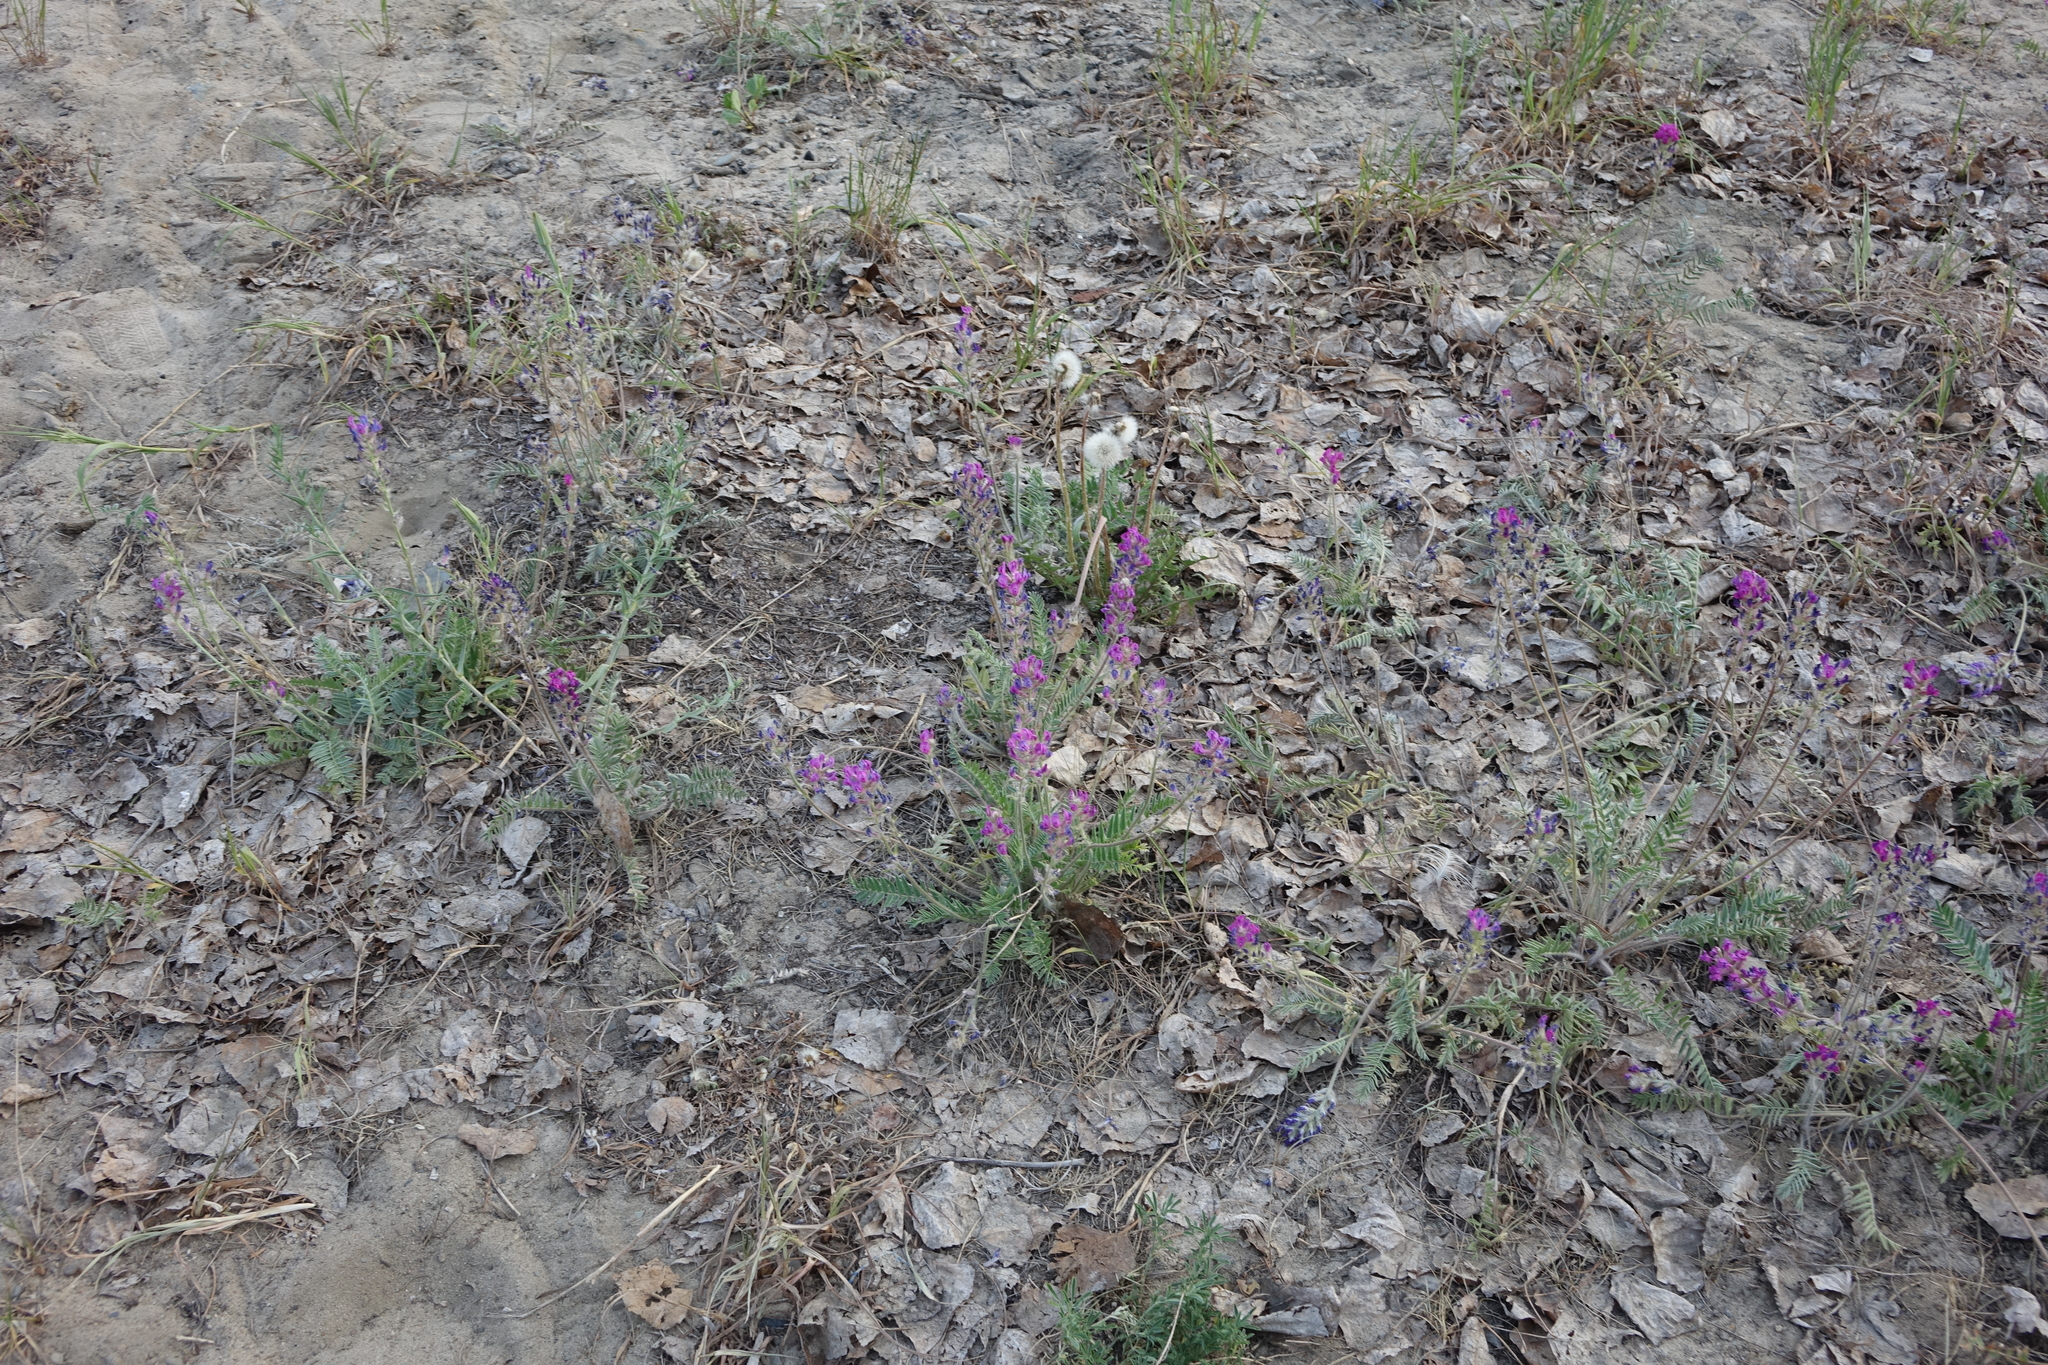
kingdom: Plantae
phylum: Tracheophyta
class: Magnoliopsida
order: Fabales
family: Fabaceae
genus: Oxytropis
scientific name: Oxytropis campanulata
